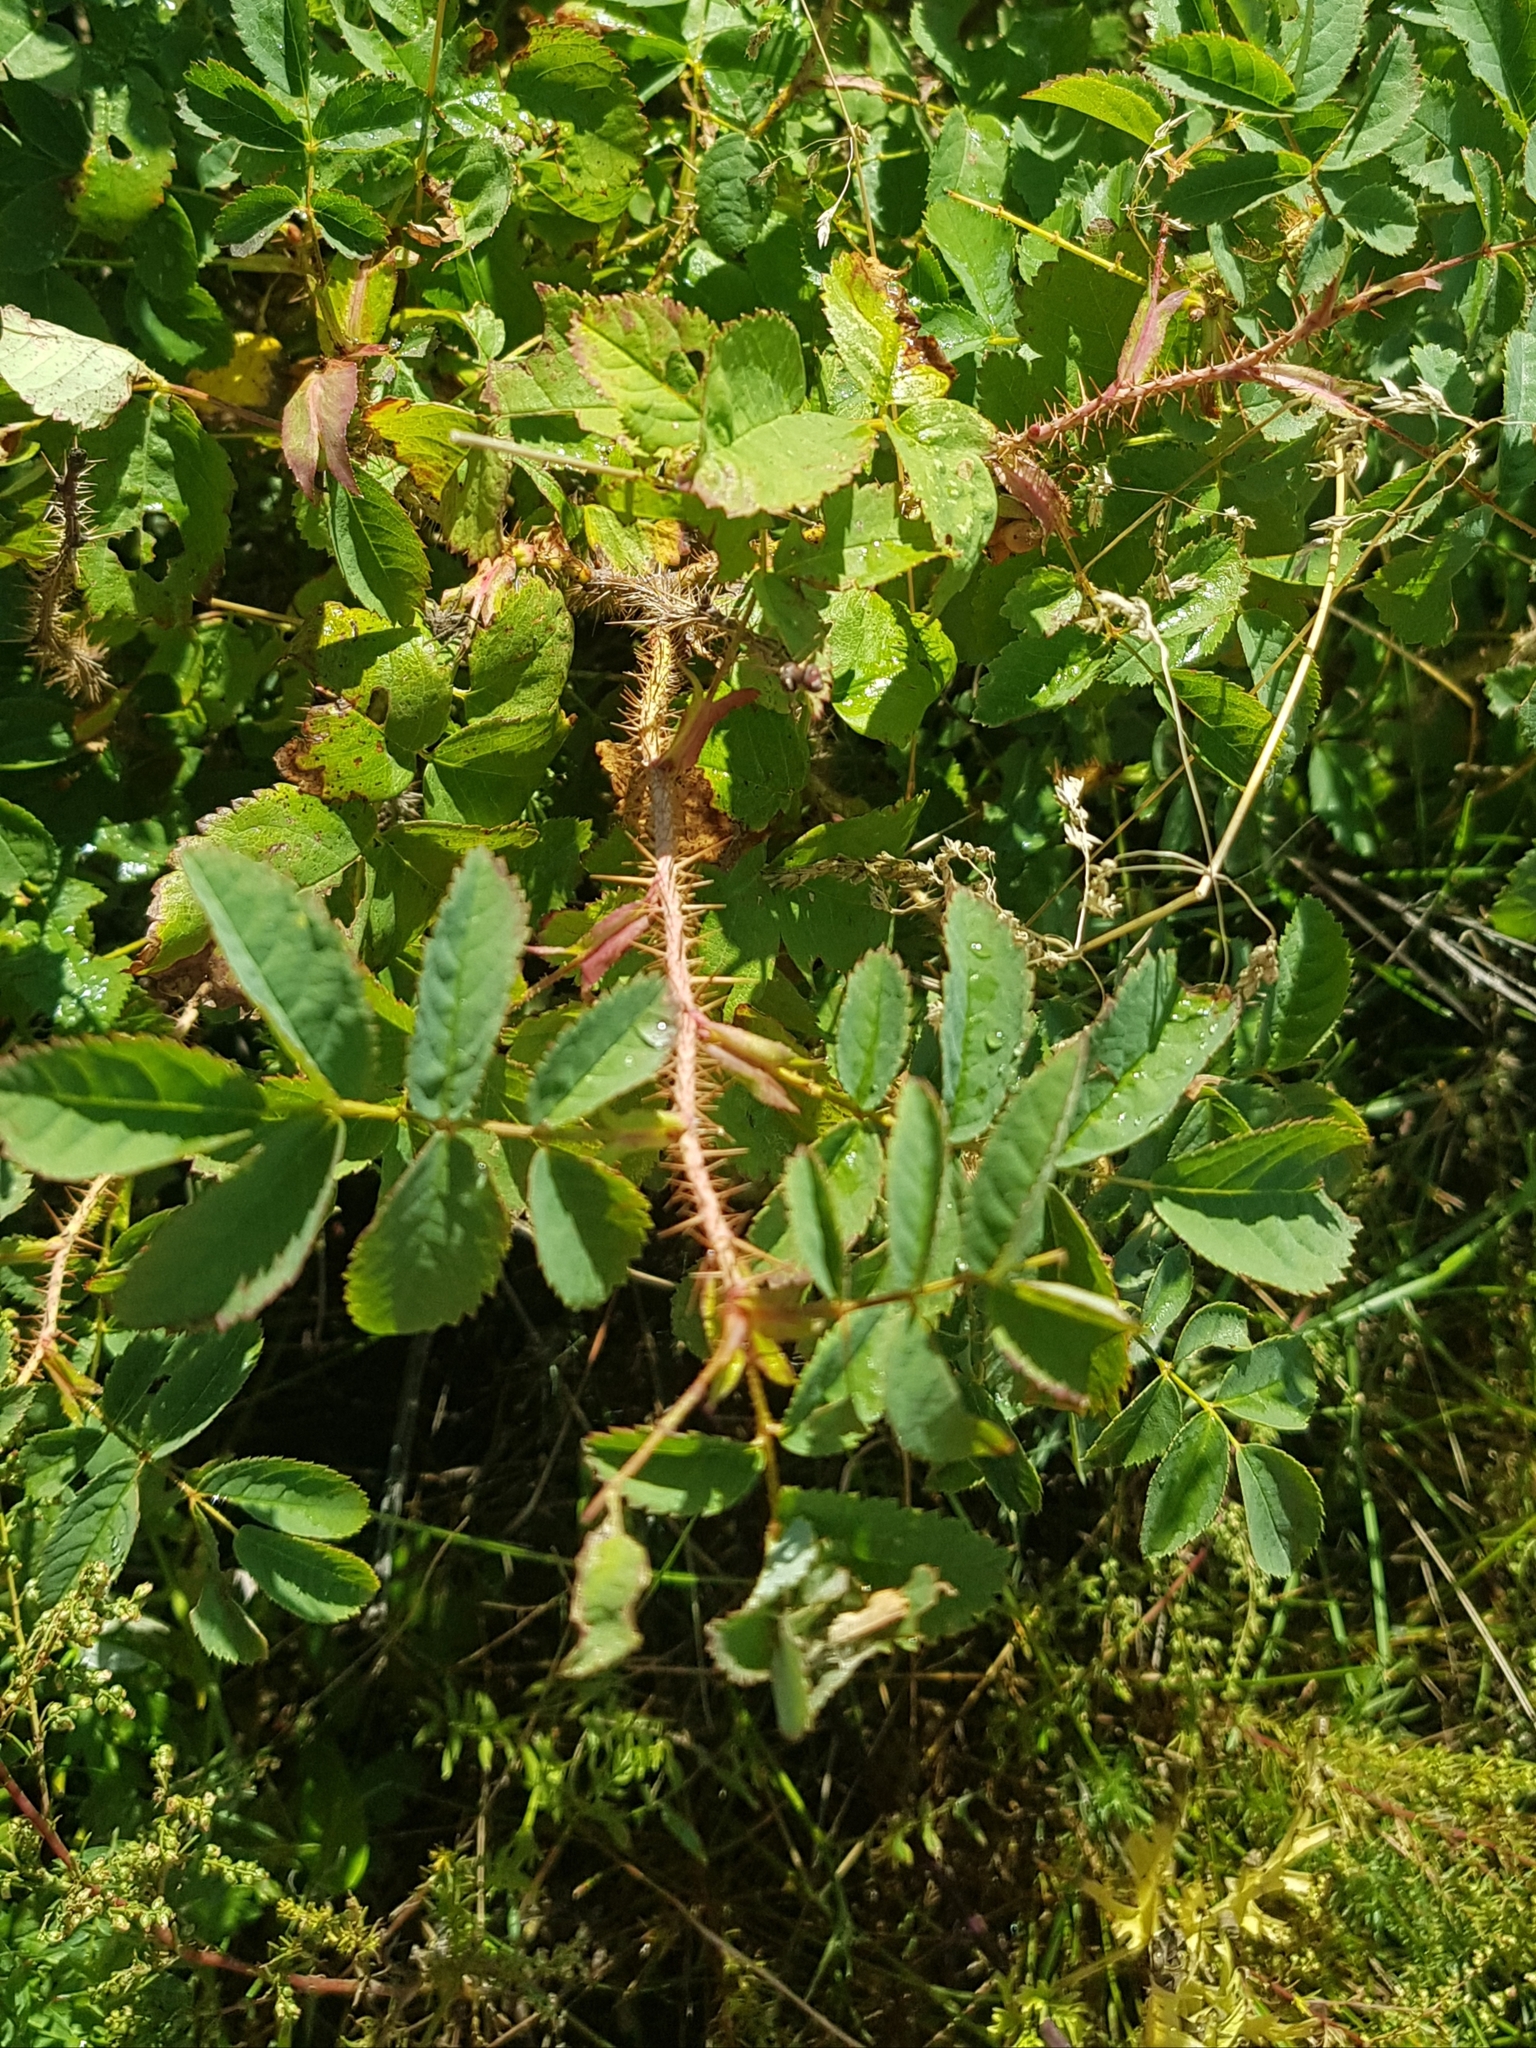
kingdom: Plantae
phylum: Tracheophyta
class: Magnoliopsida
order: Rosales
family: Rosaceae
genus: Rosa
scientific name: Rosa acicularis
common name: Prickly rose
